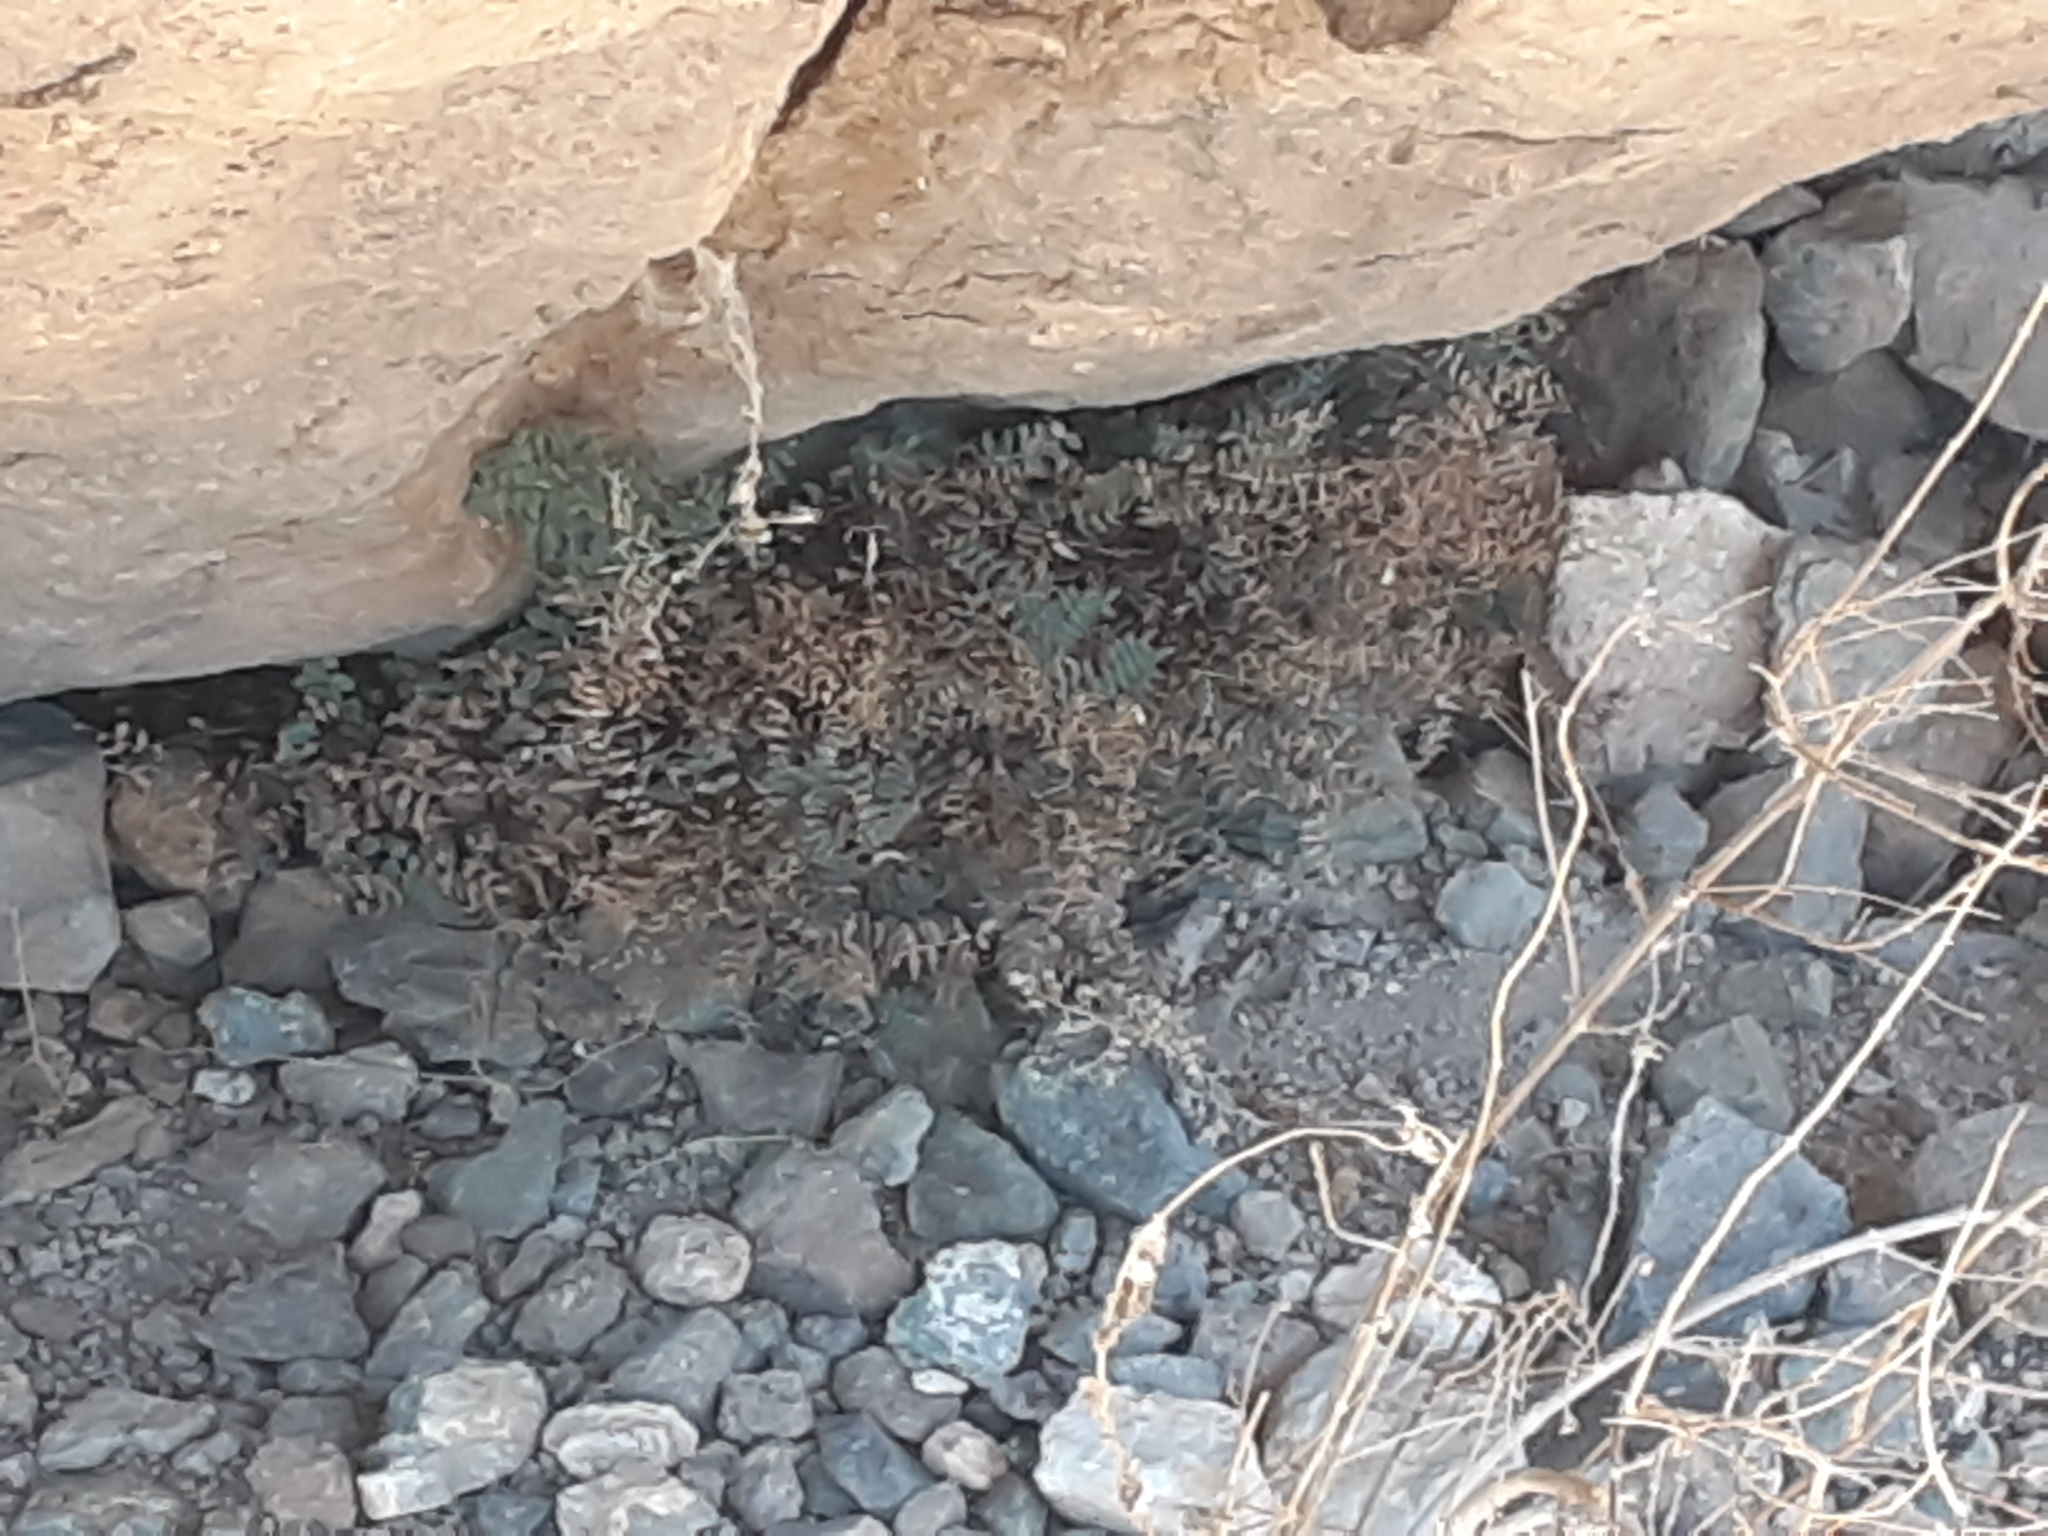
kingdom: Plantae
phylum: Tracheophyta
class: Polypodiopsida
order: Polypodiales
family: Pteridaceae
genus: Pellaea
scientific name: Pellaea truncata
